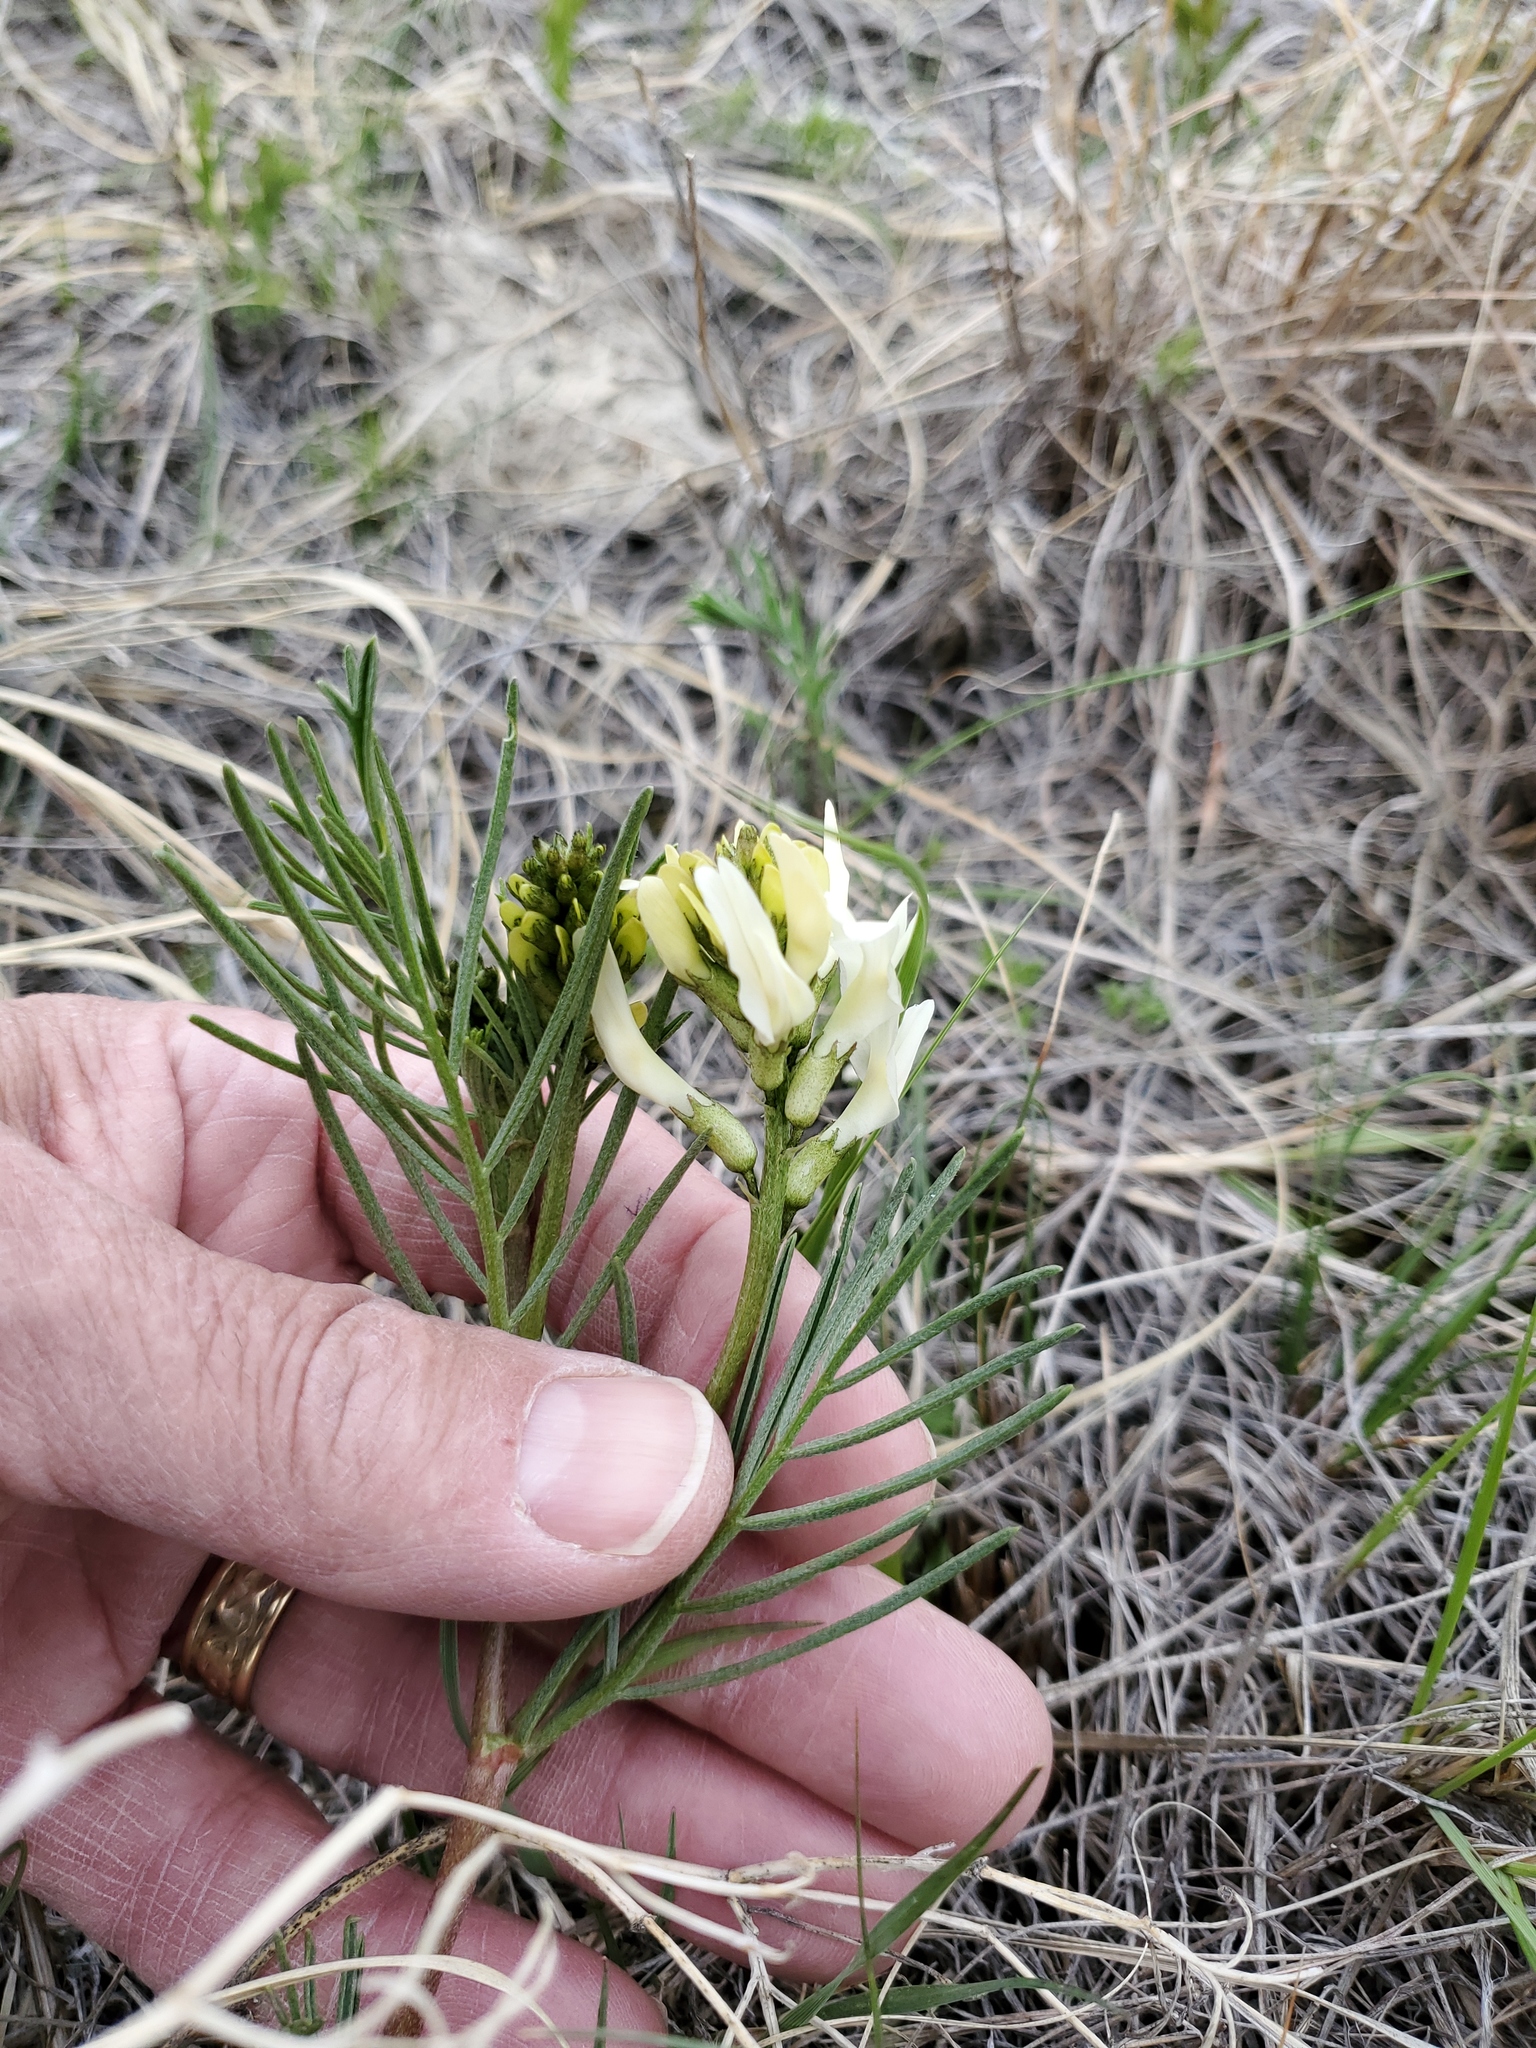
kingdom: Plantae
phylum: Tracheophyta
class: Magnoliopsida
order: Fabales
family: Fabaceae
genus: Astragalus
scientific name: Astragalus pectinatus
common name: Tine-leaf milk-vetch
